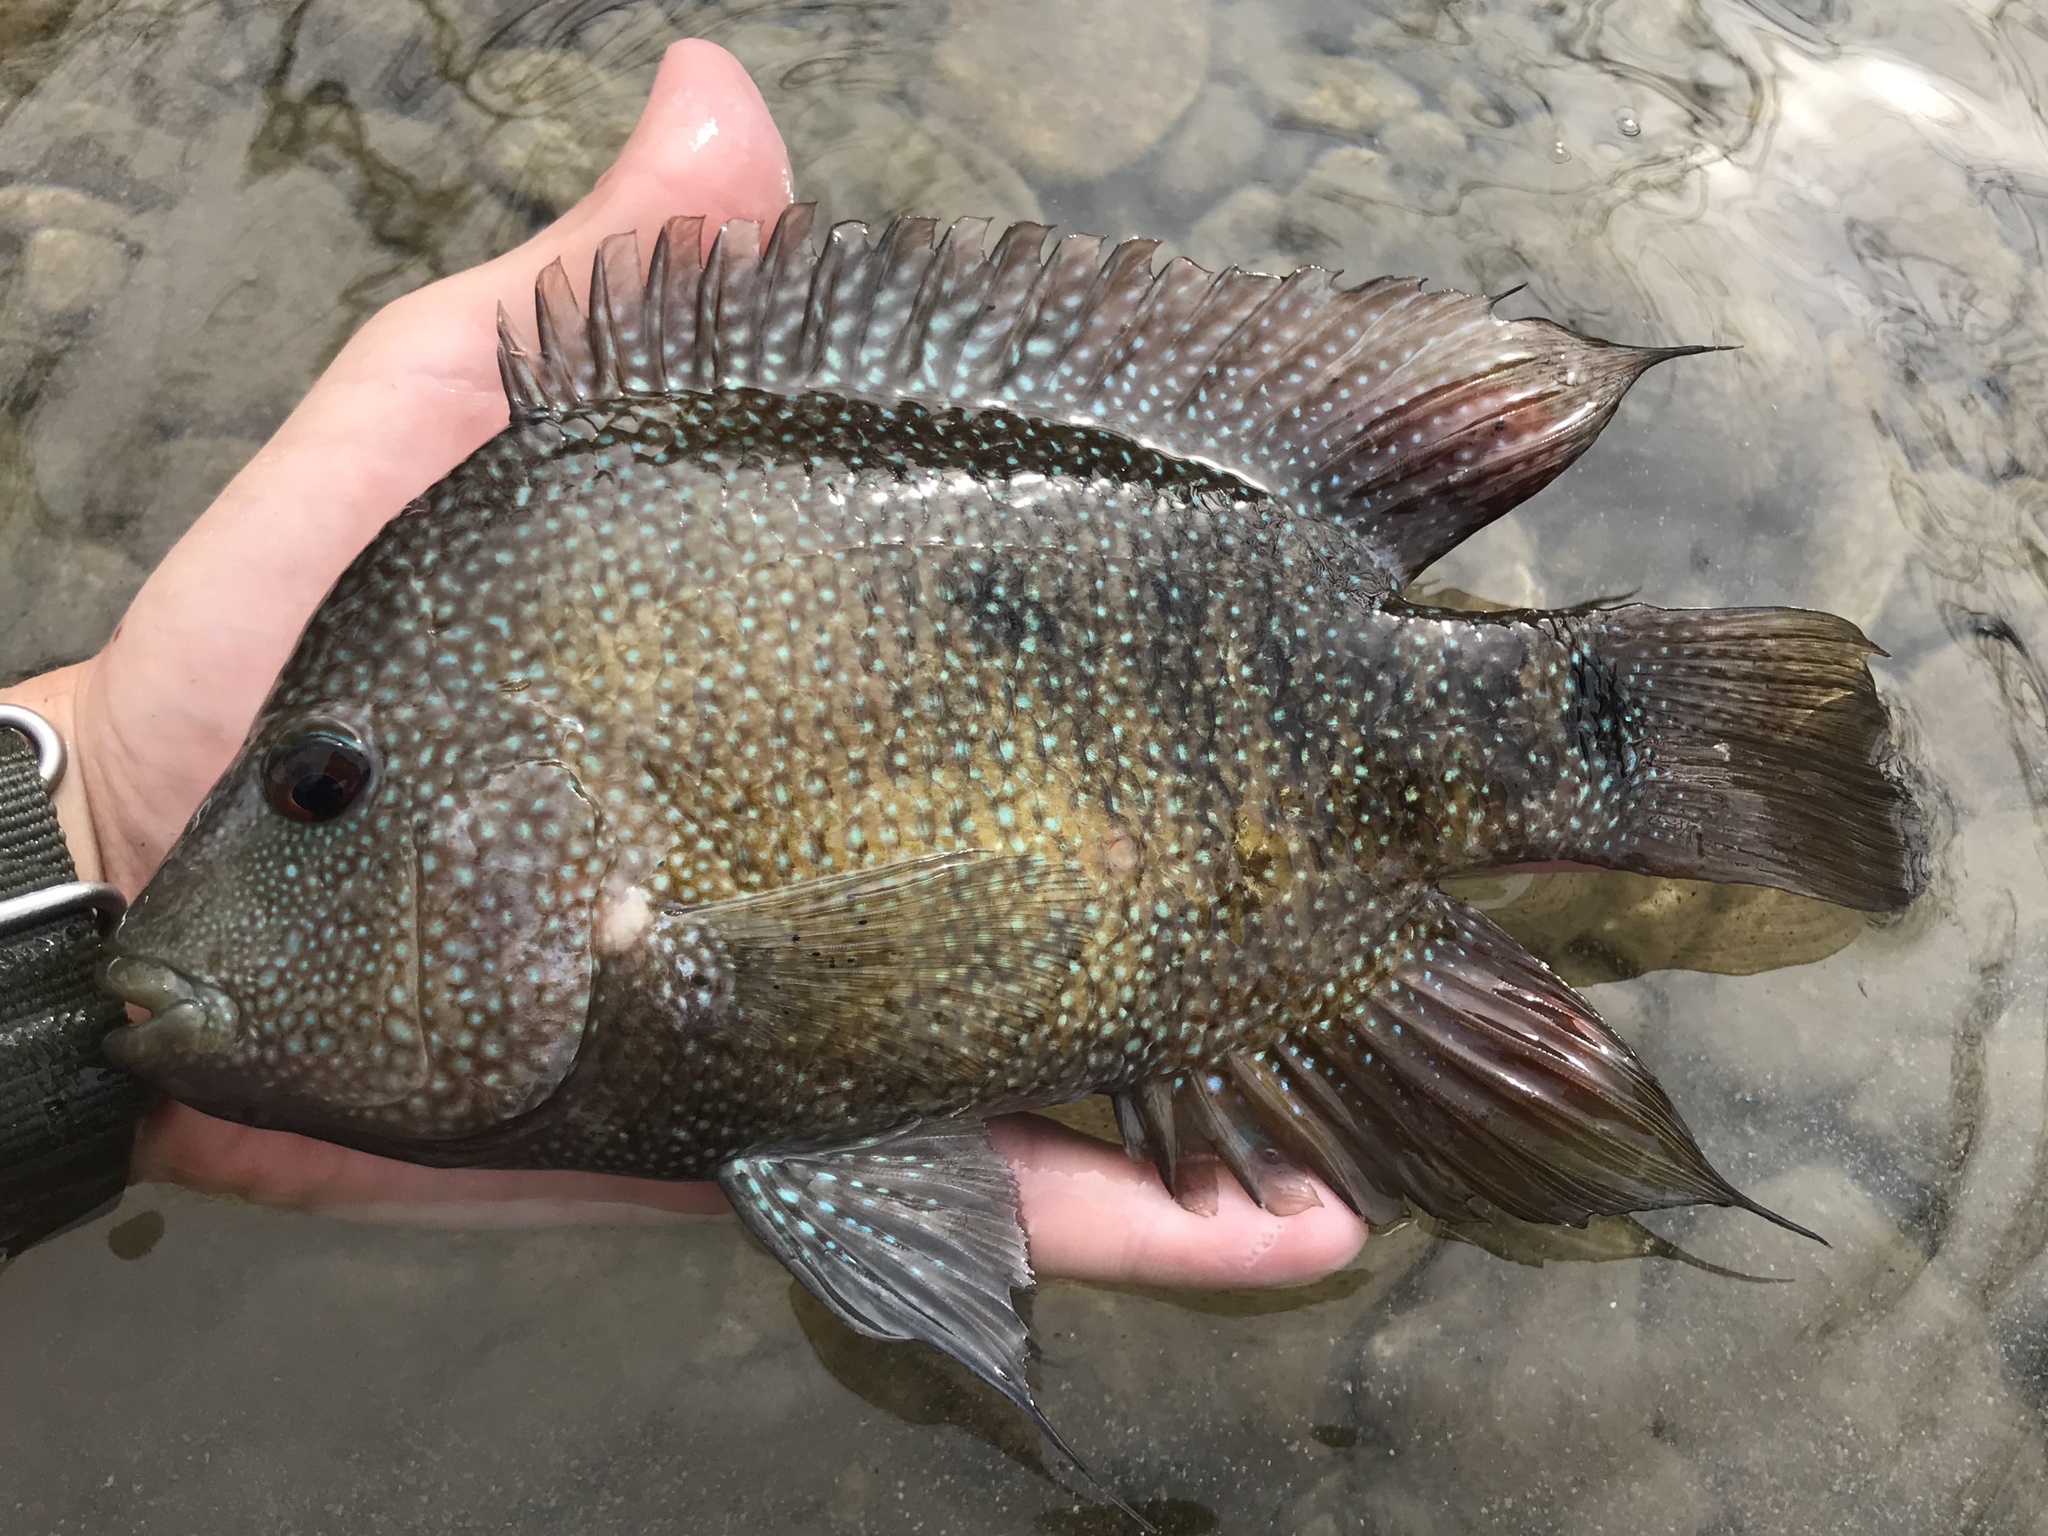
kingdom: Animalia
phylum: Chordata
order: Perciformes
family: Cichlidae
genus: Herichthys
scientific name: Herichthys cyanoguttatus
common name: Rio grande cichlid
